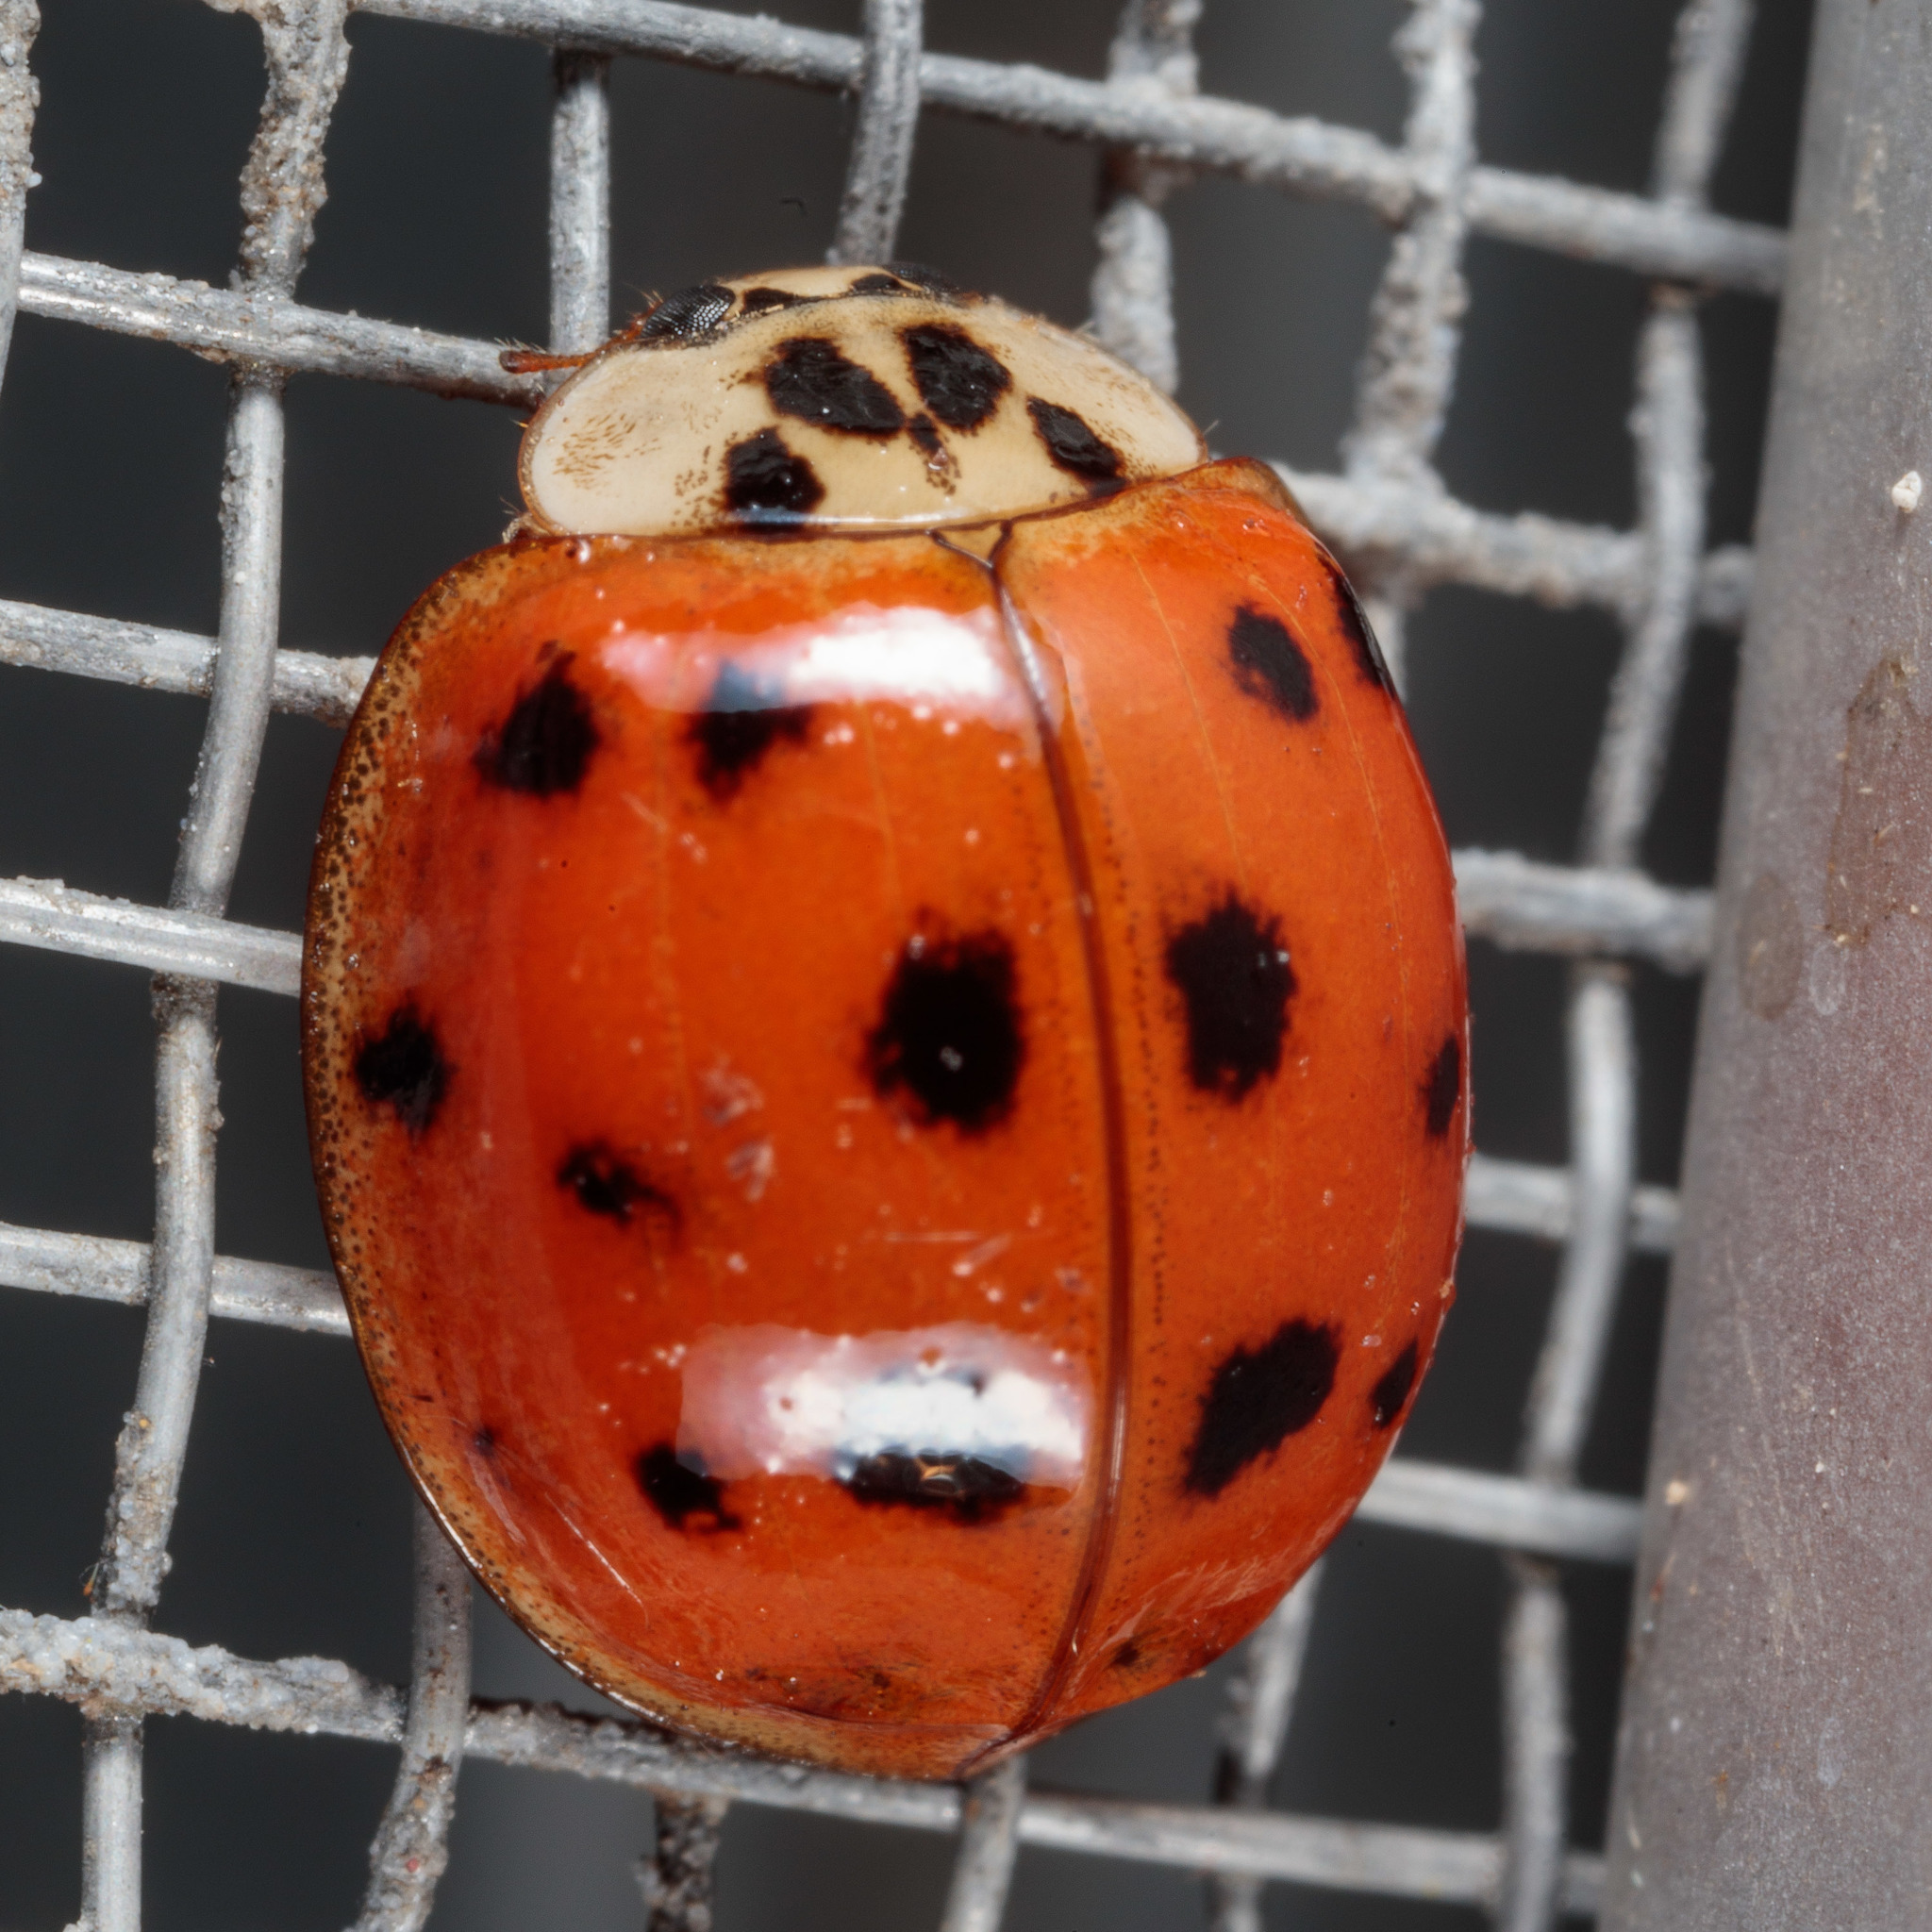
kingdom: Animalia
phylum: Arthropoda
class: Insecta
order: Coleoptera
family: Coccinellidae
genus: Harmonia
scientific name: Harmonia axyridis
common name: Harlequin ladybird
